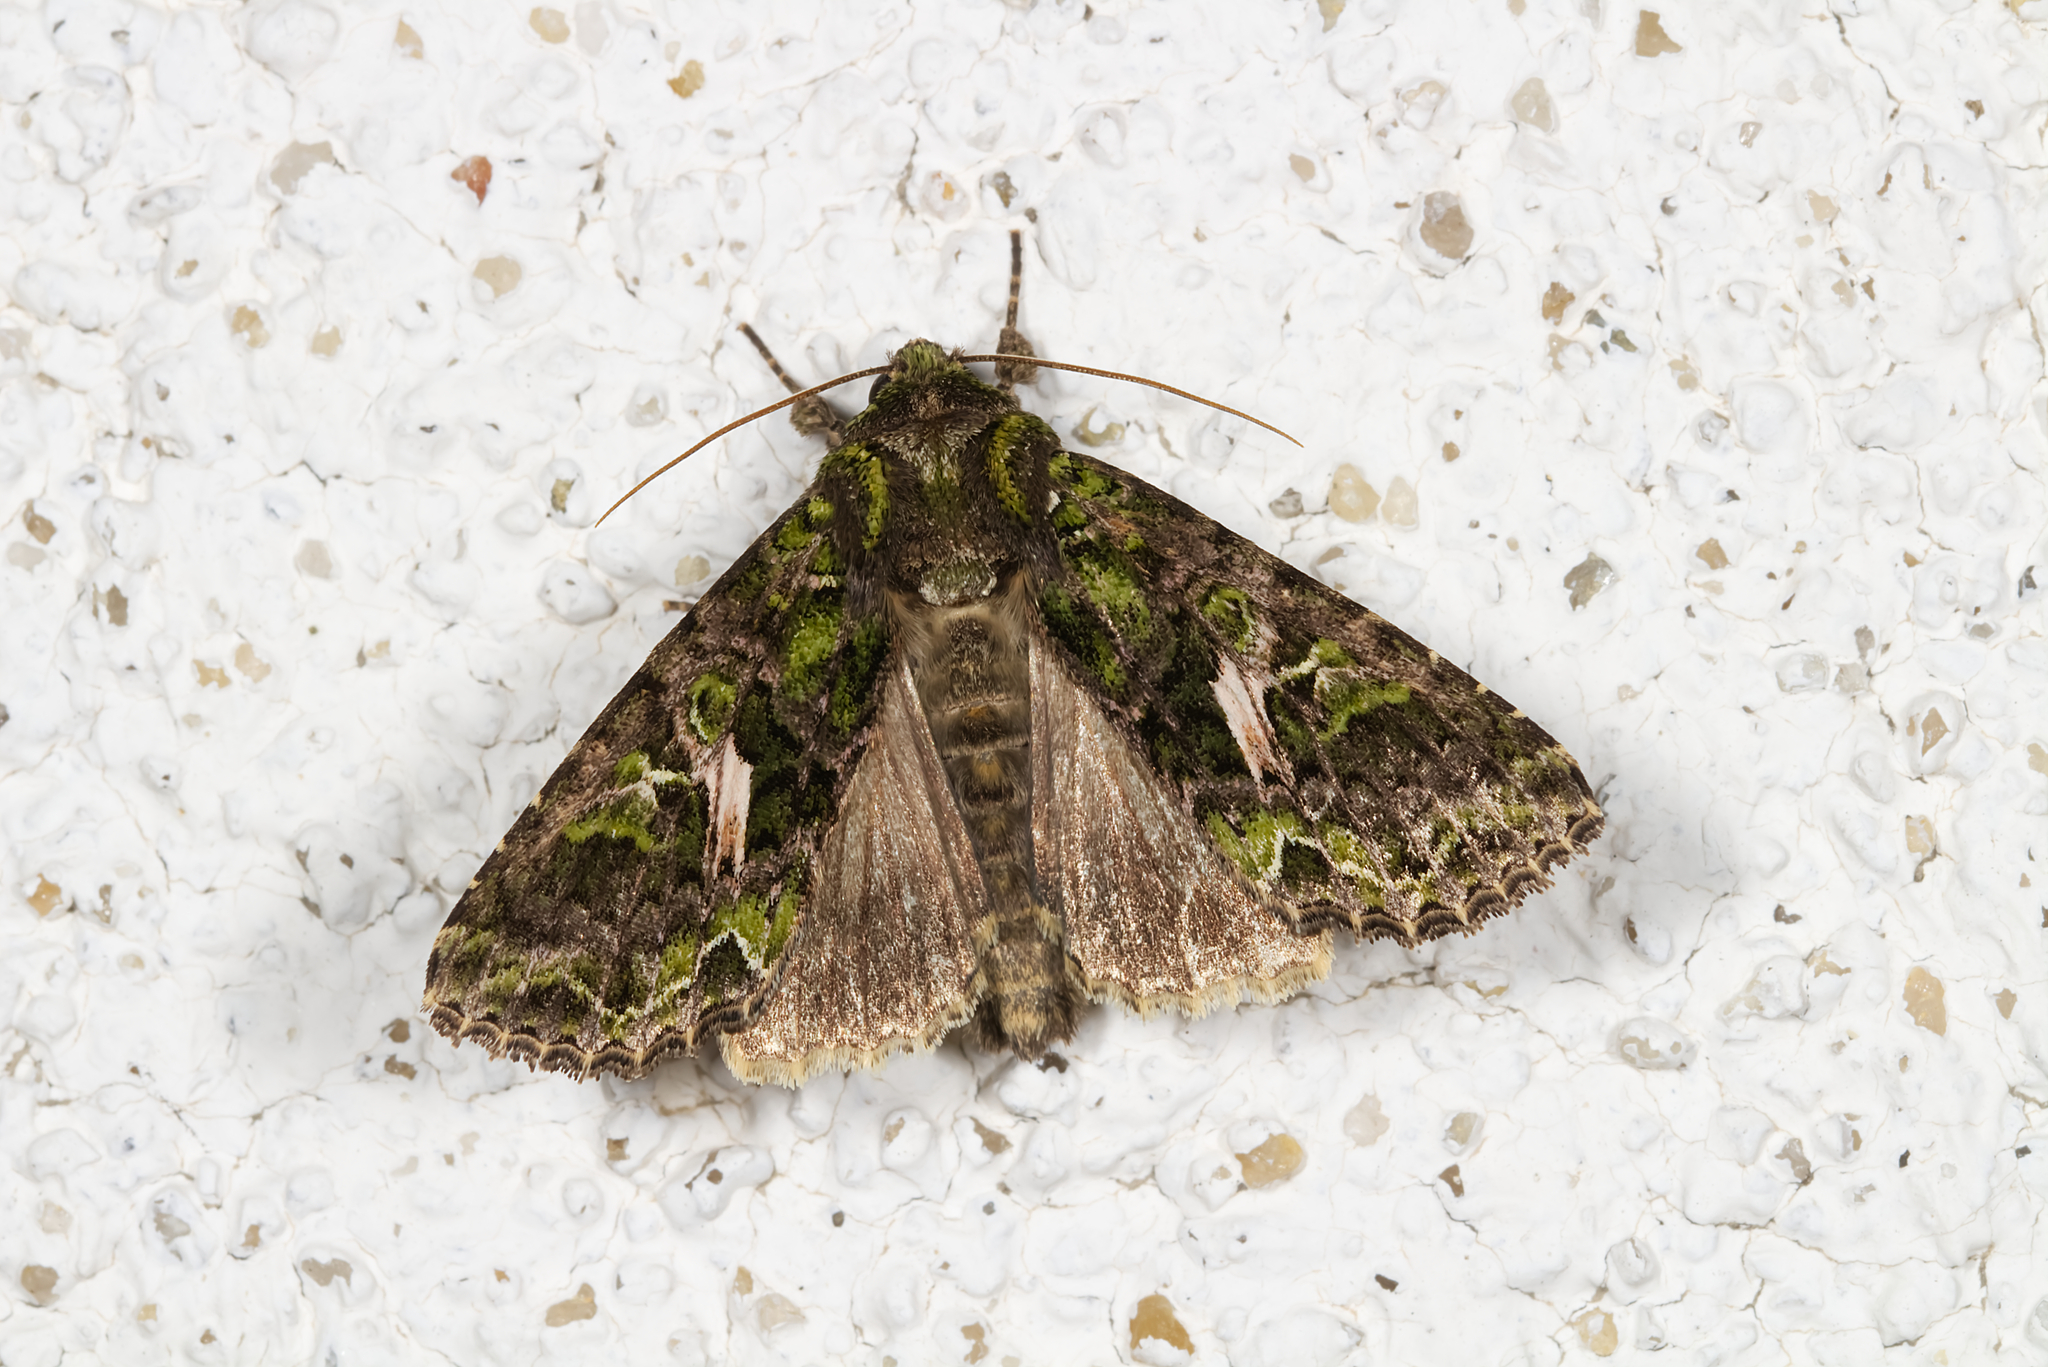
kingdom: Animalia
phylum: Arthropoda
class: Insecta
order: Lepidoptera
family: Noctuidae
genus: Trachea
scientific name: Trachea atriplicis
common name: Orache moth
